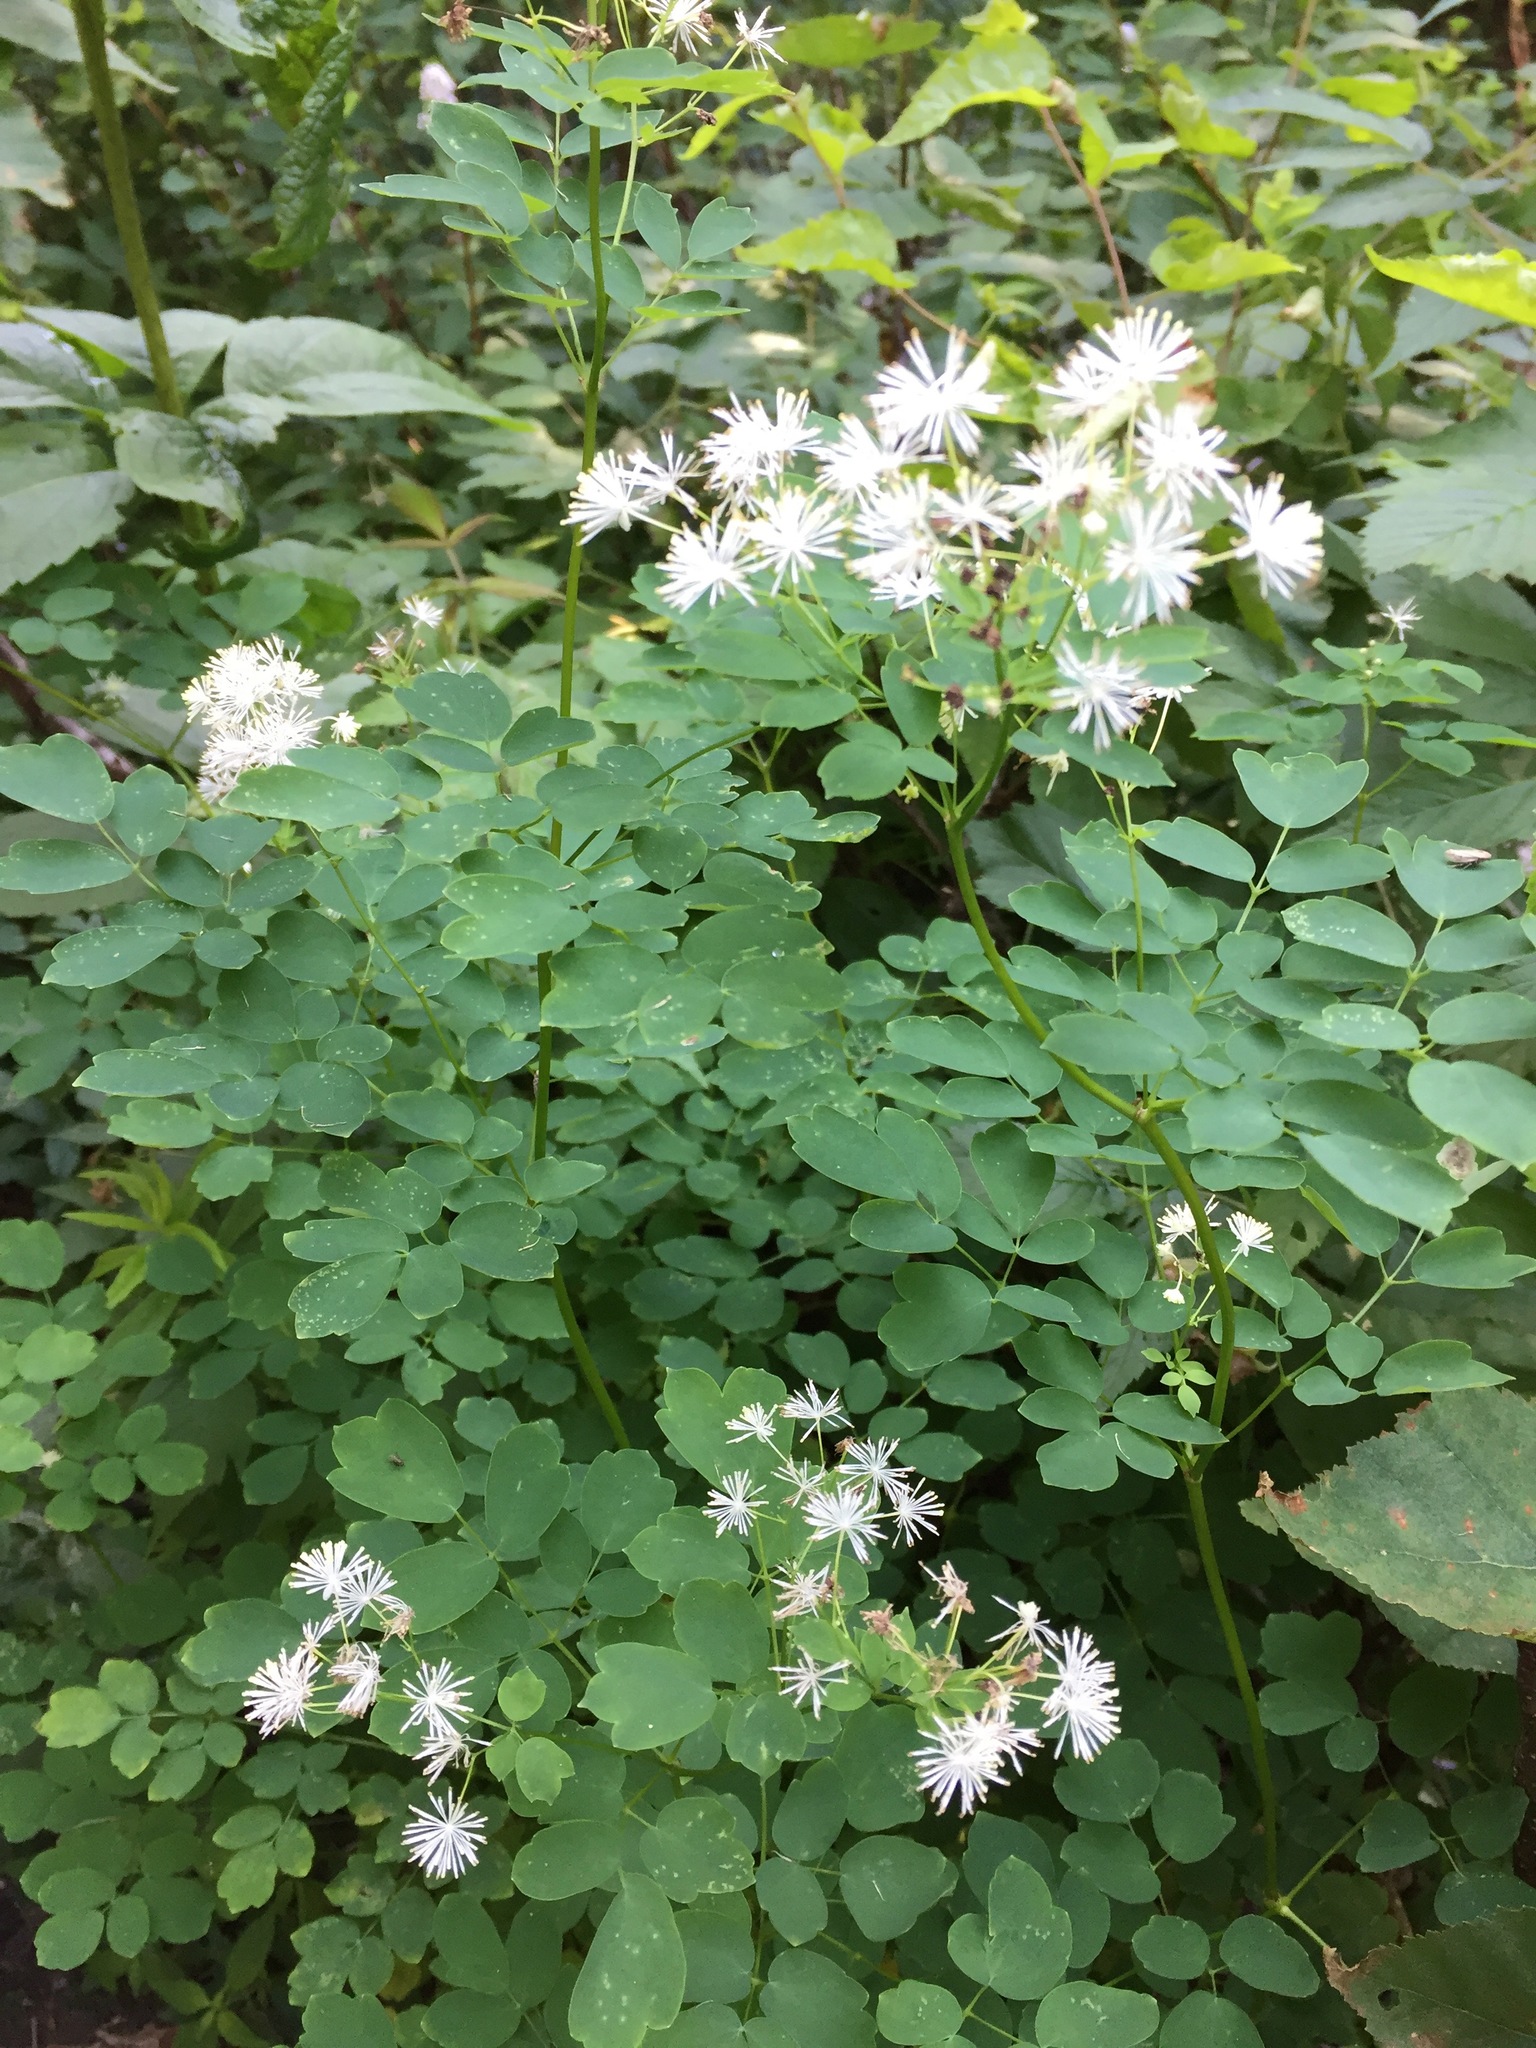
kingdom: Plantae
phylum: Tracheophyta
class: Magnoliopsida
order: Ranunculales
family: Ranunculaceae
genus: Thalictrum
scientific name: Thalictrum pubescens
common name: King-of-the-meadow
